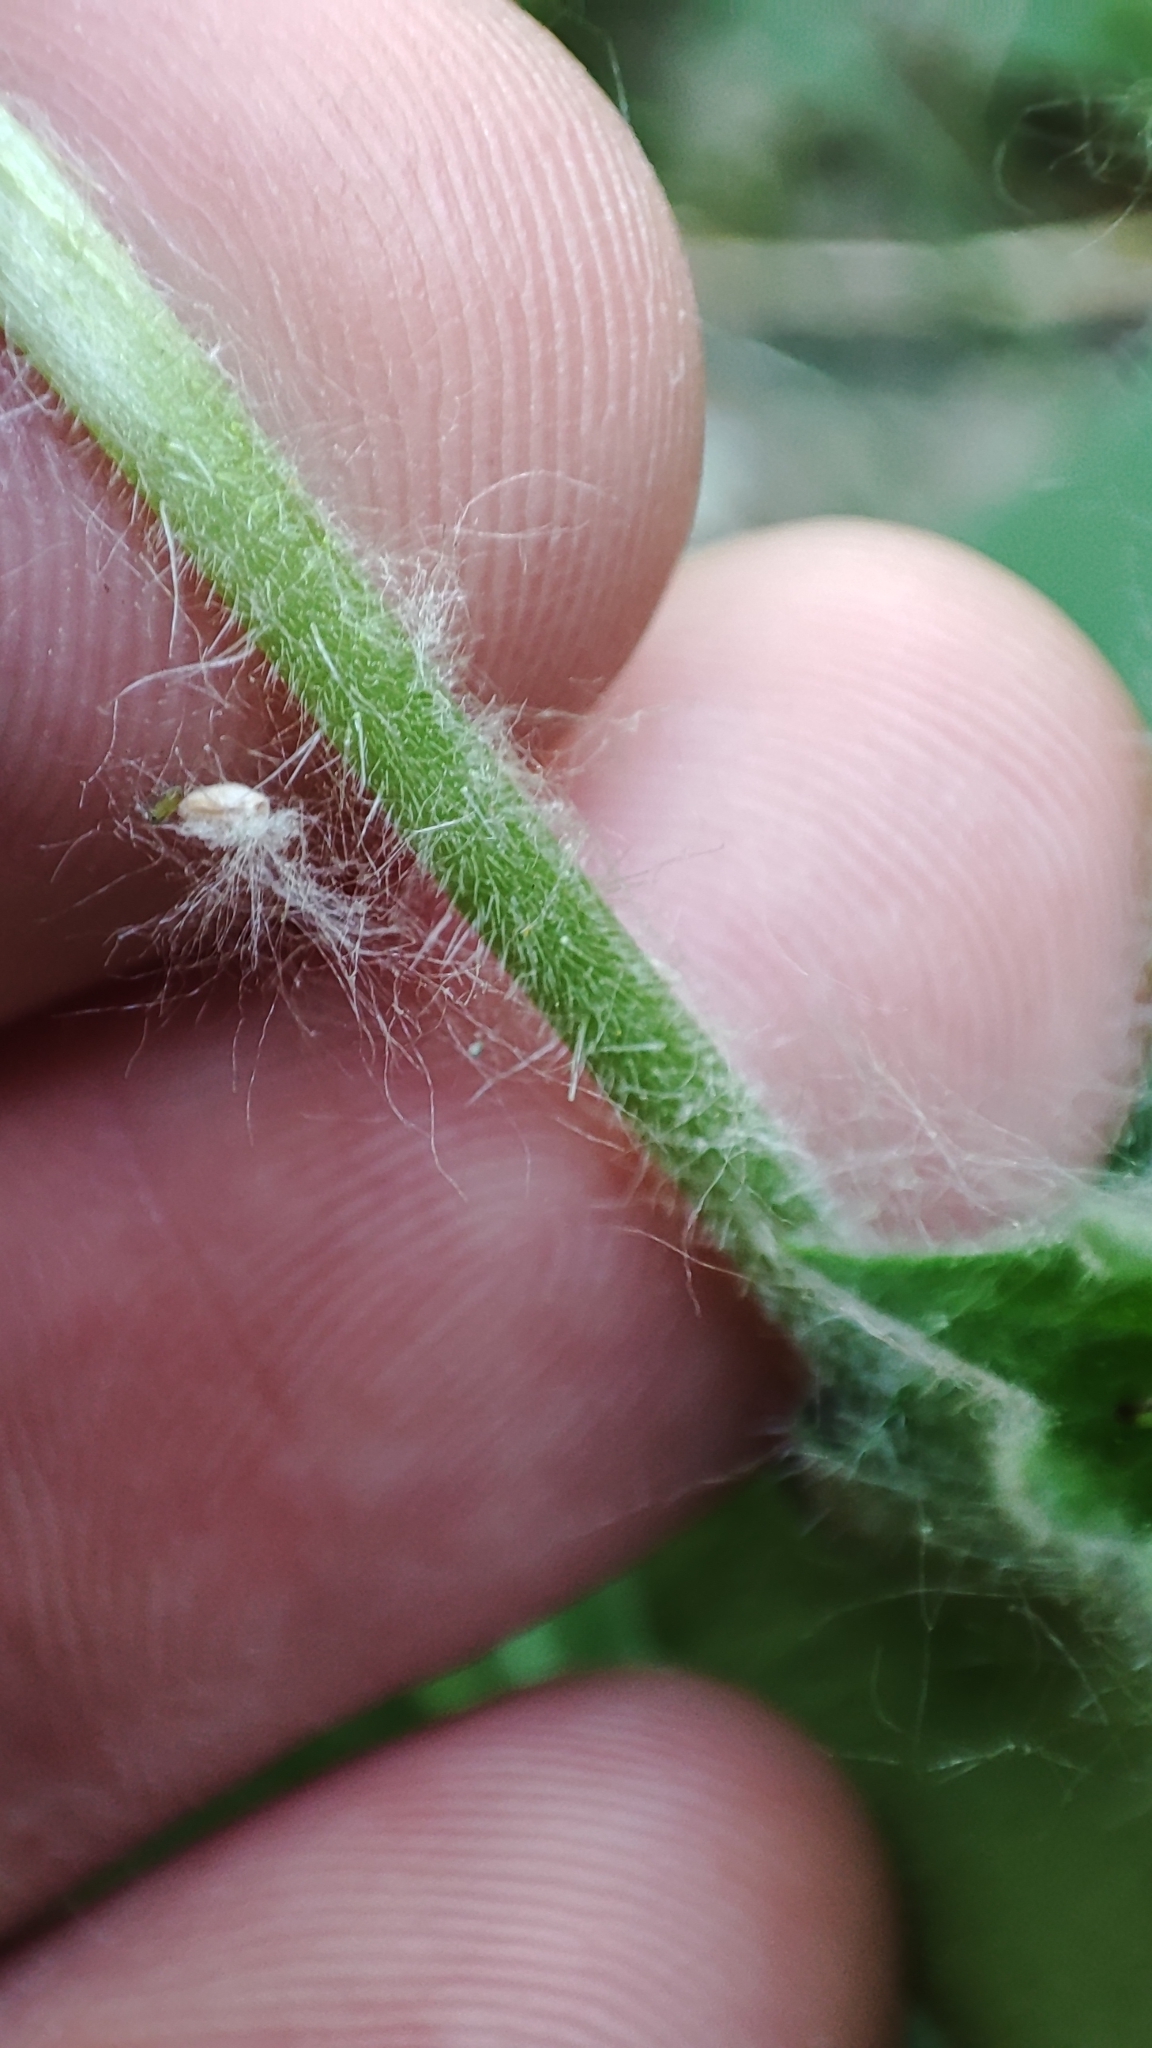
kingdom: Plantae
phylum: Tracheophyta
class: Magnoliopsida
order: Boraginales
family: Boraginaceae
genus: Lycopsis
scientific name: Lycopsis arvensis
